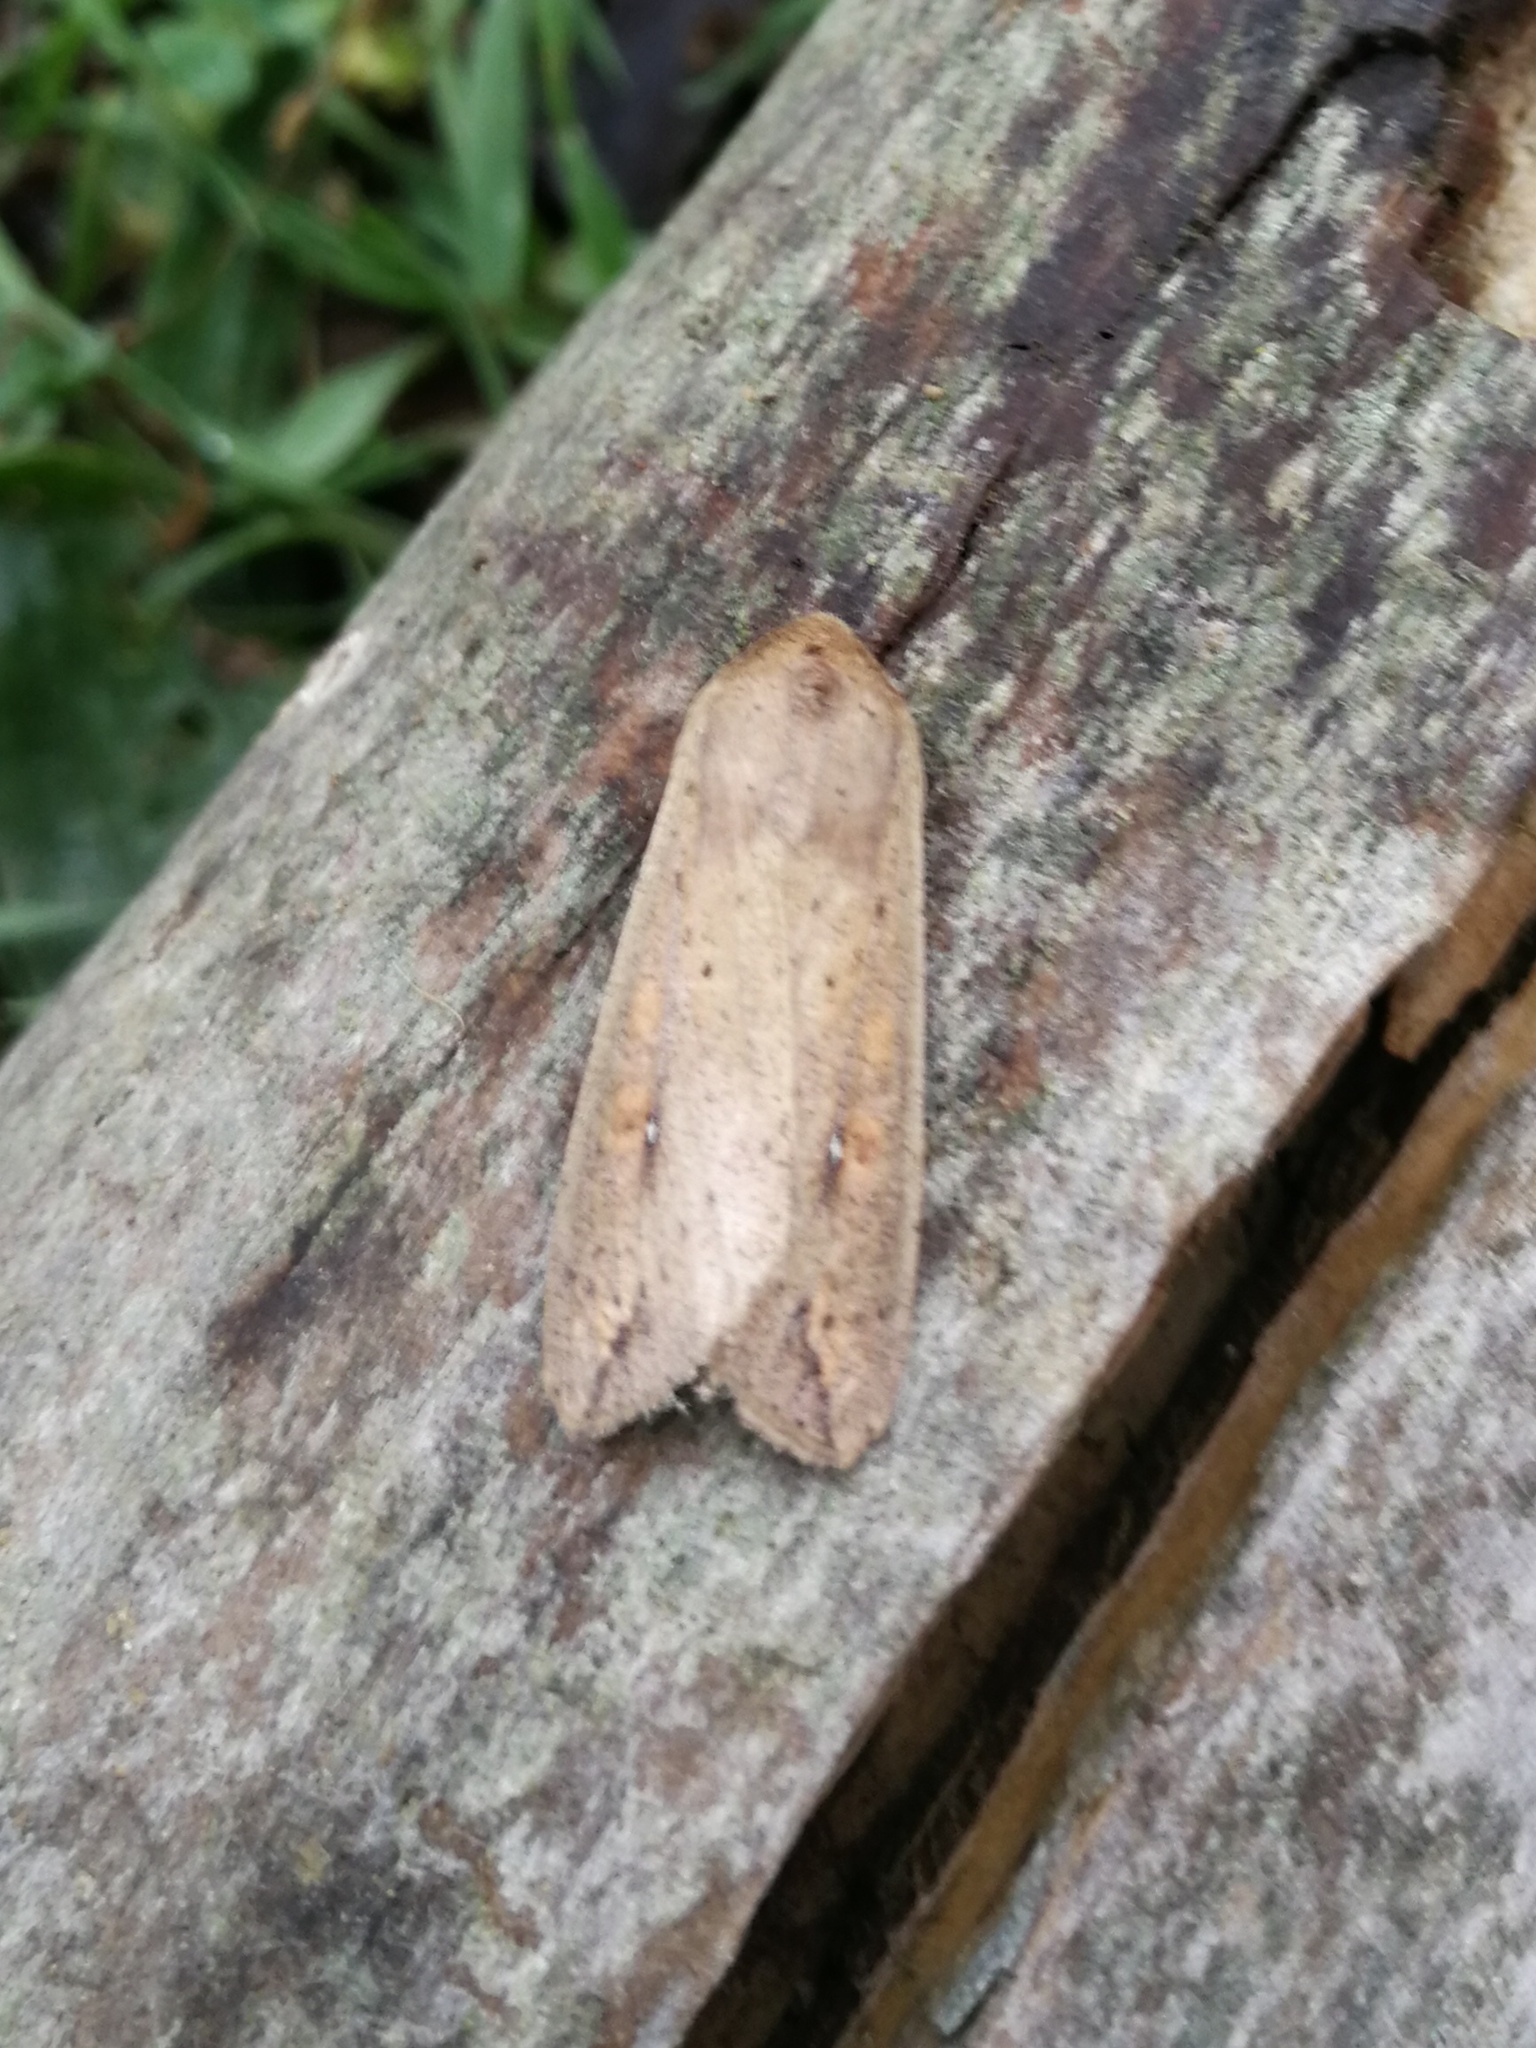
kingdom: Animalia
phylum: Arthropoda
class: Insecta
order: Lepidoptera
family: Noctuidae
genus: Mythimna
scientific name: Mythimna unipuncta
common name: White-speck
